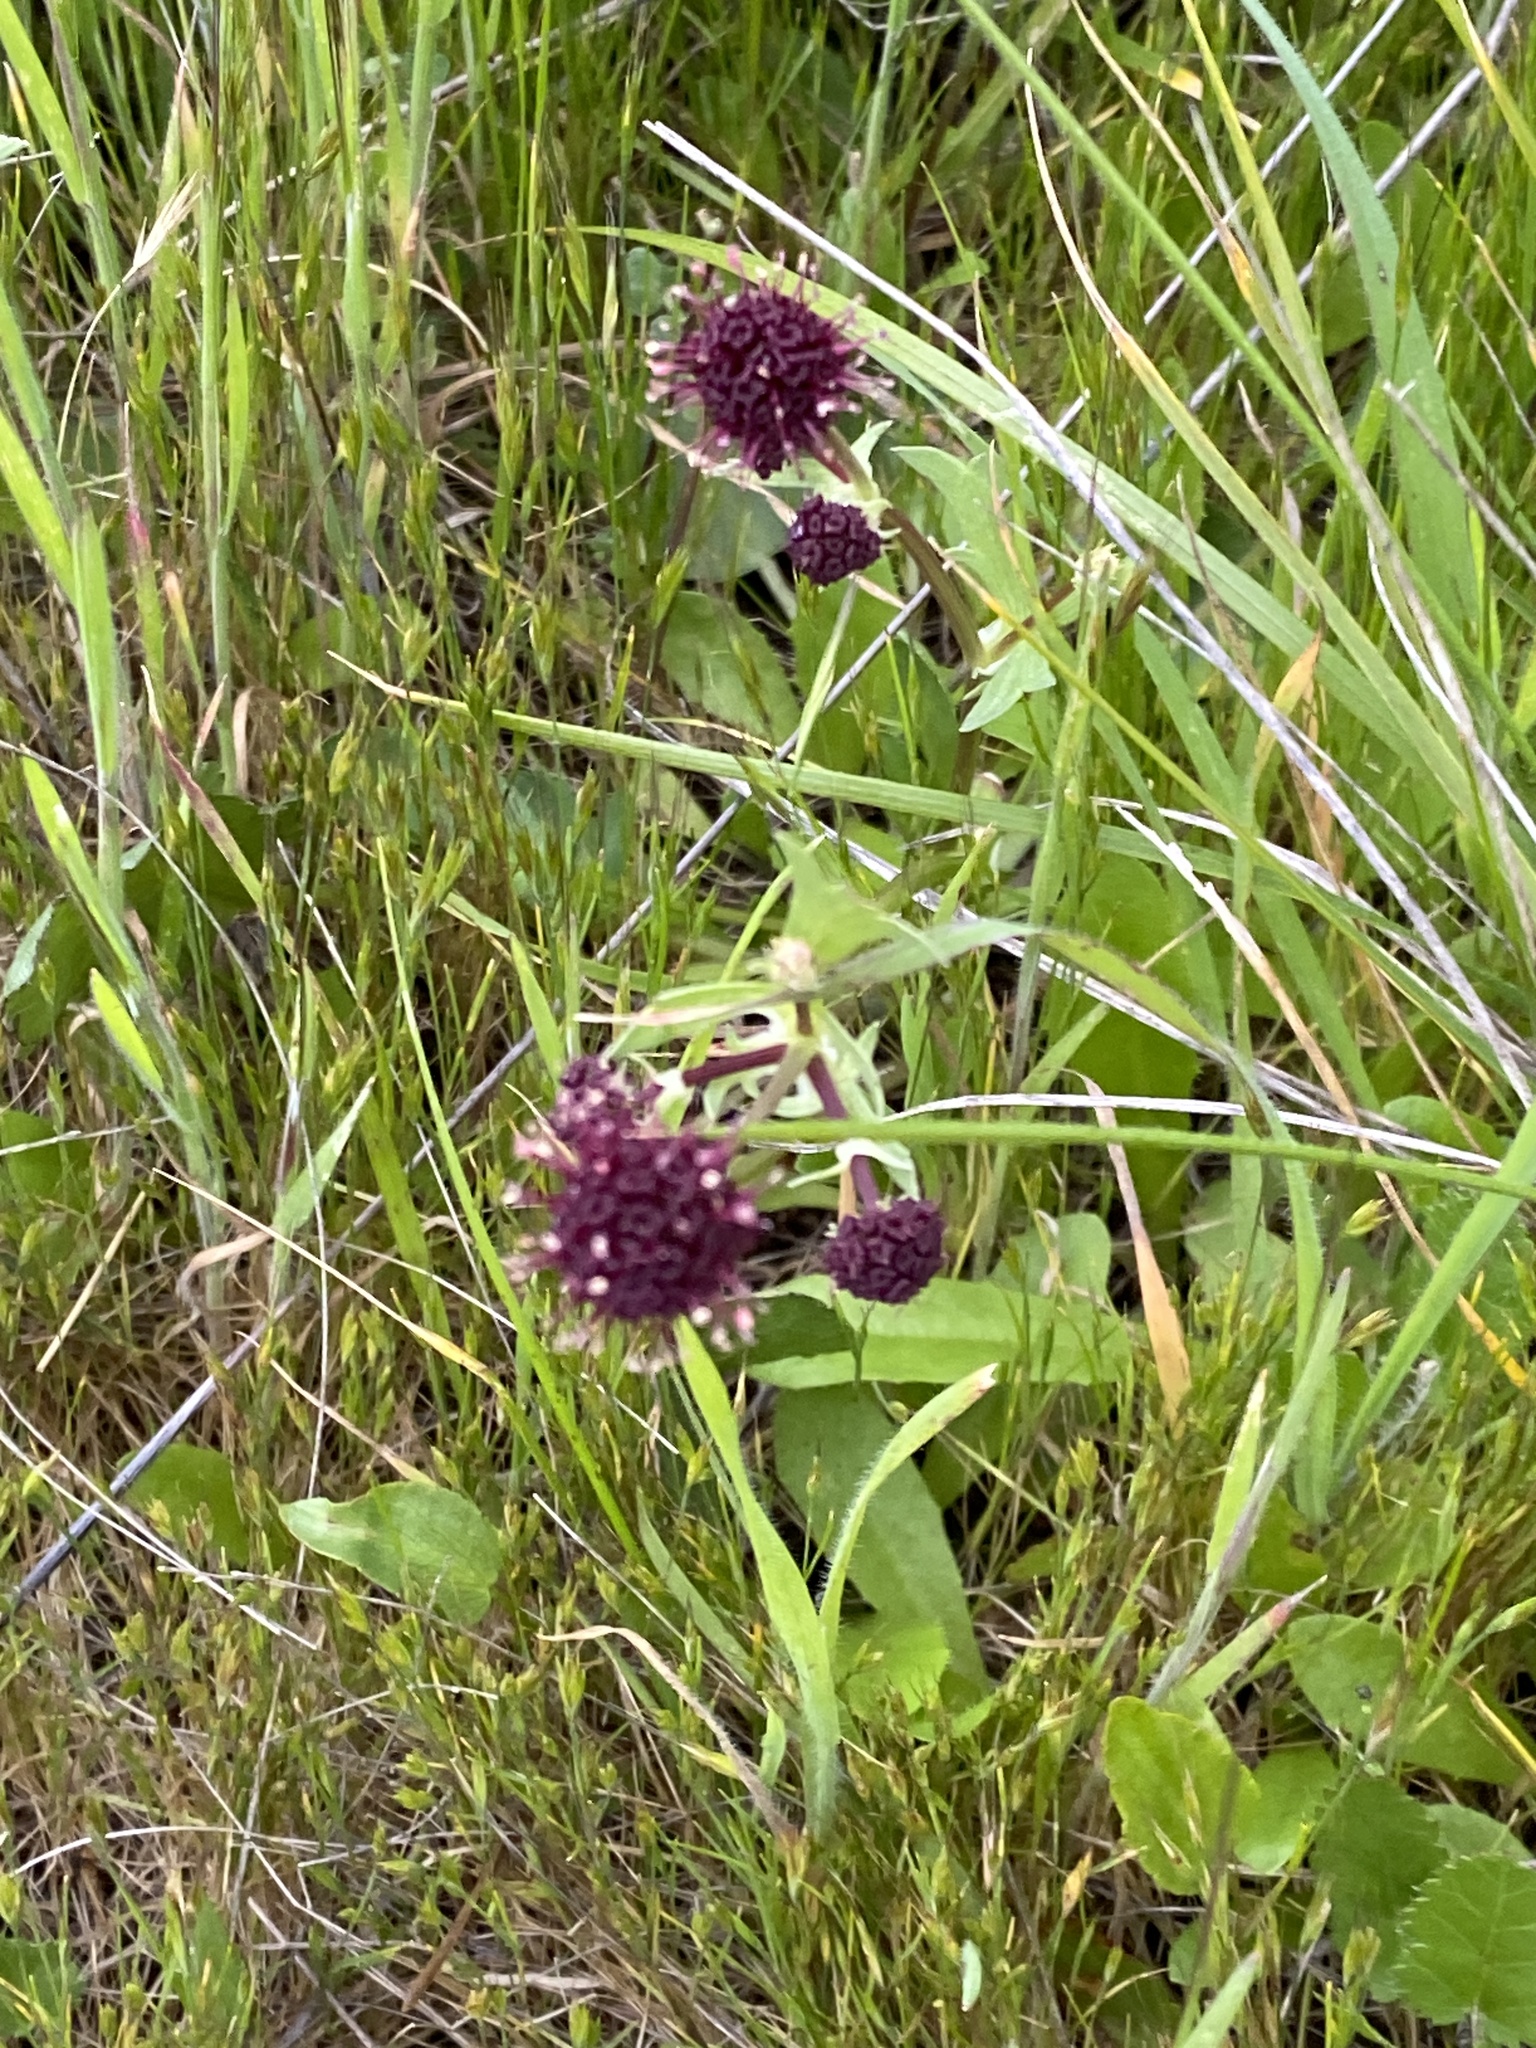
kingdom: Plantae
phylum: Tracheophyta
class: Magnoliopsida
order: Apiales
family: Apiaceae
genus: Sanicula
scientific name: Sanicula bipinnatifida
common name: Shoe-buttons
